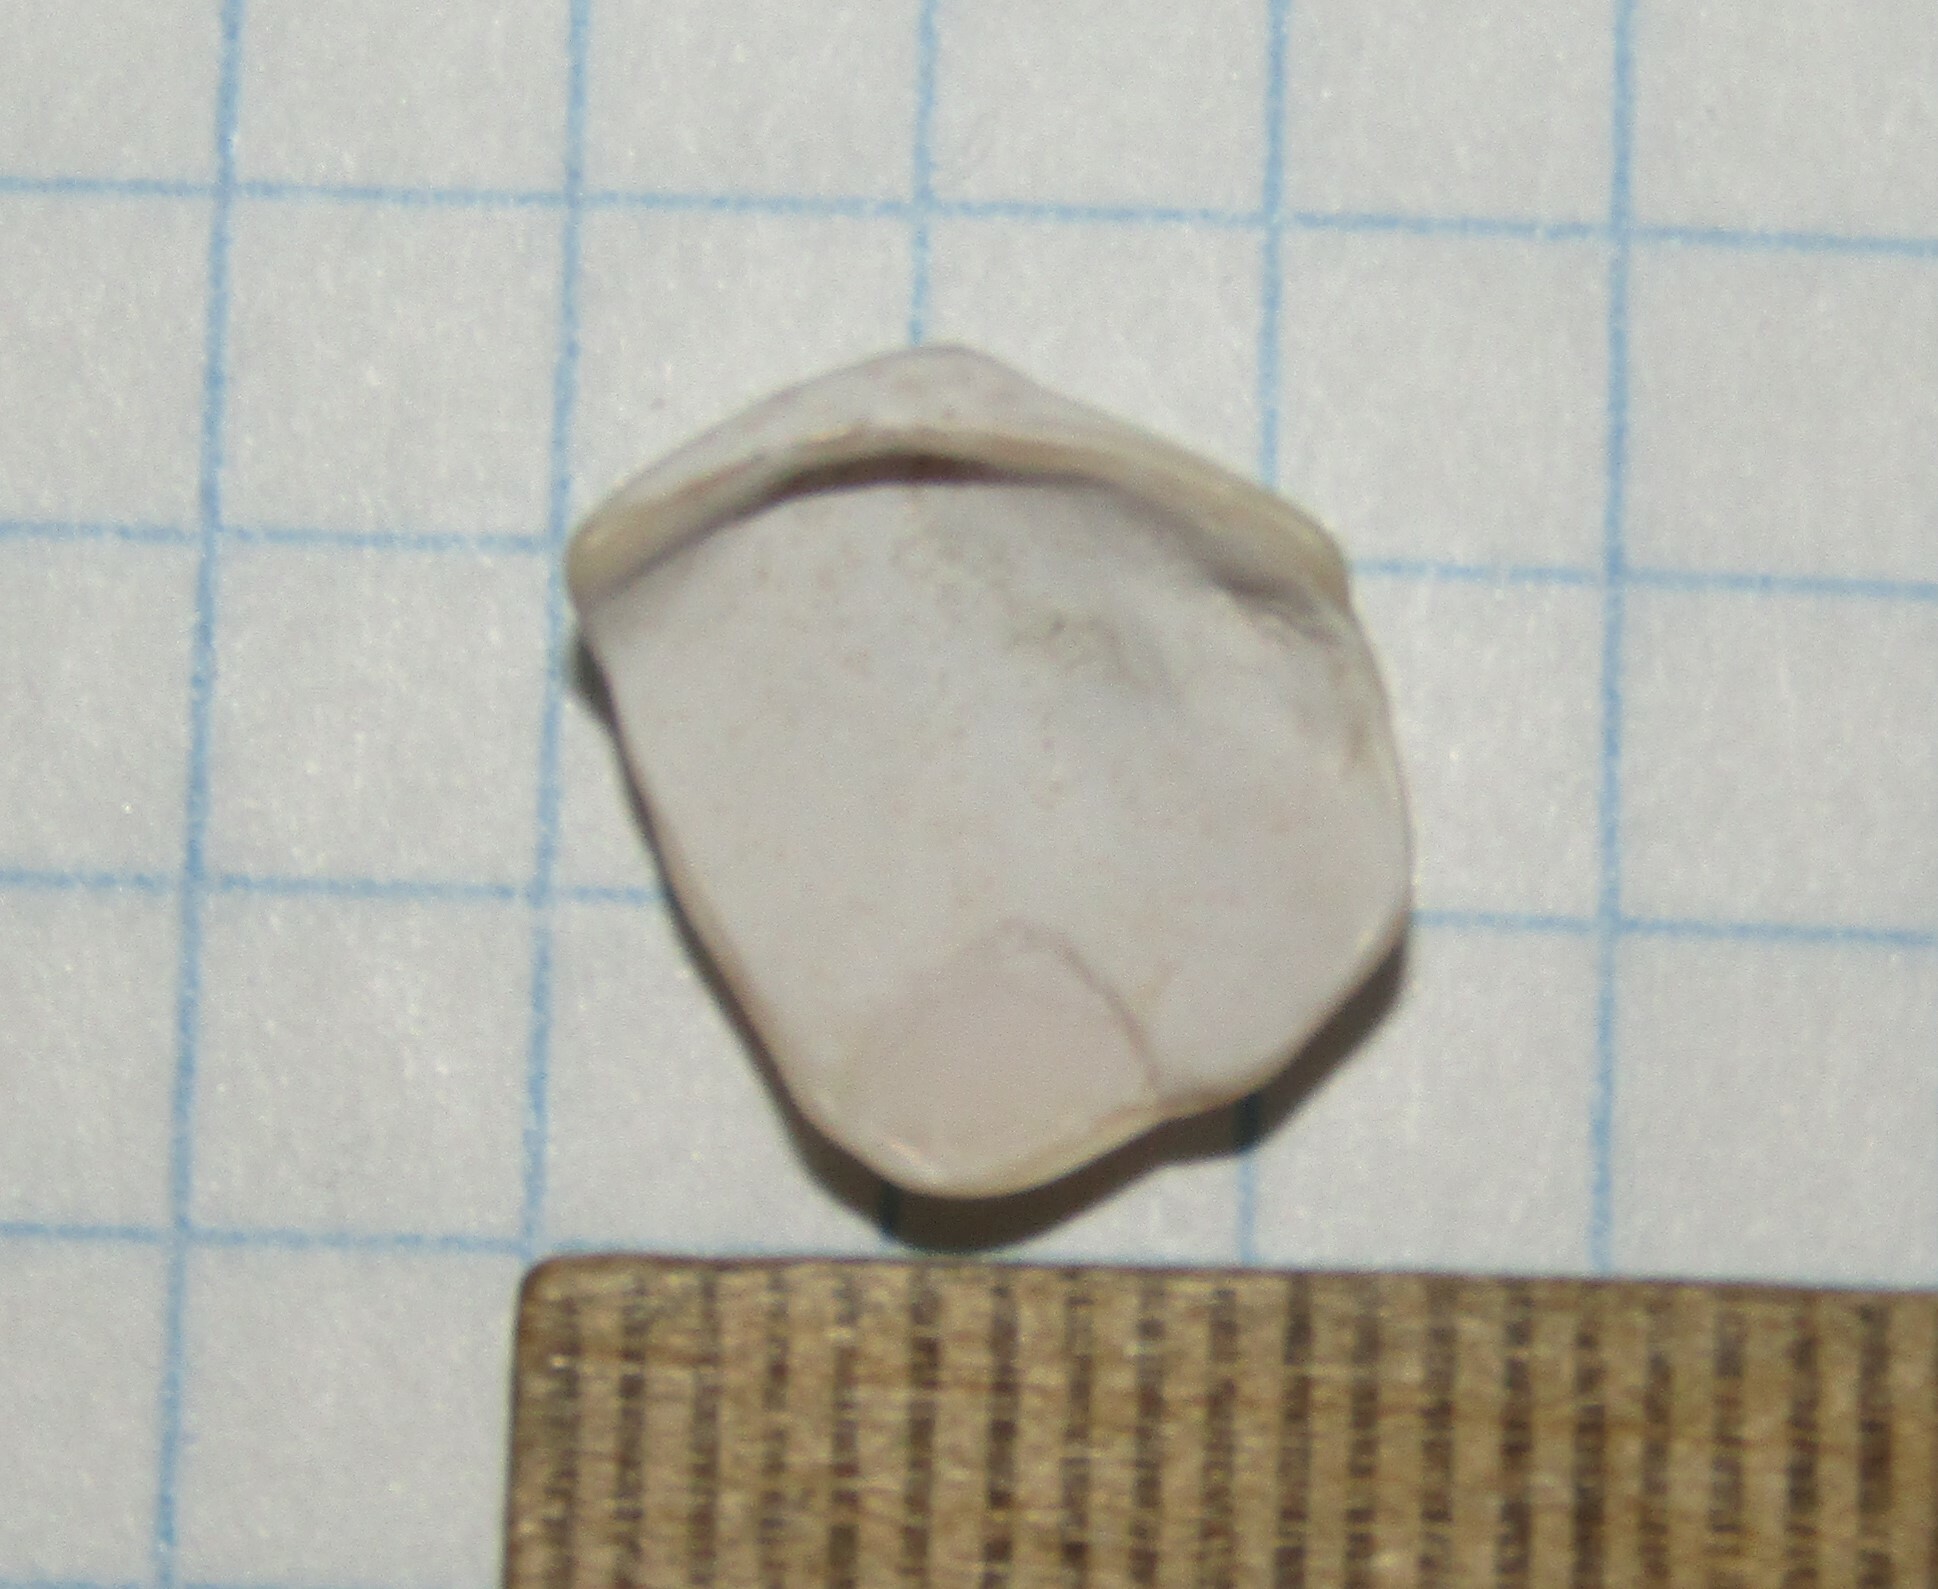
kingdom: Animalia
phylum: Mollusca
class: Bivalvia
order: Cardiida
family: Tellinidae
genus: Macoma
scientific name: Macoma balthica
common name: Baltic tellin
